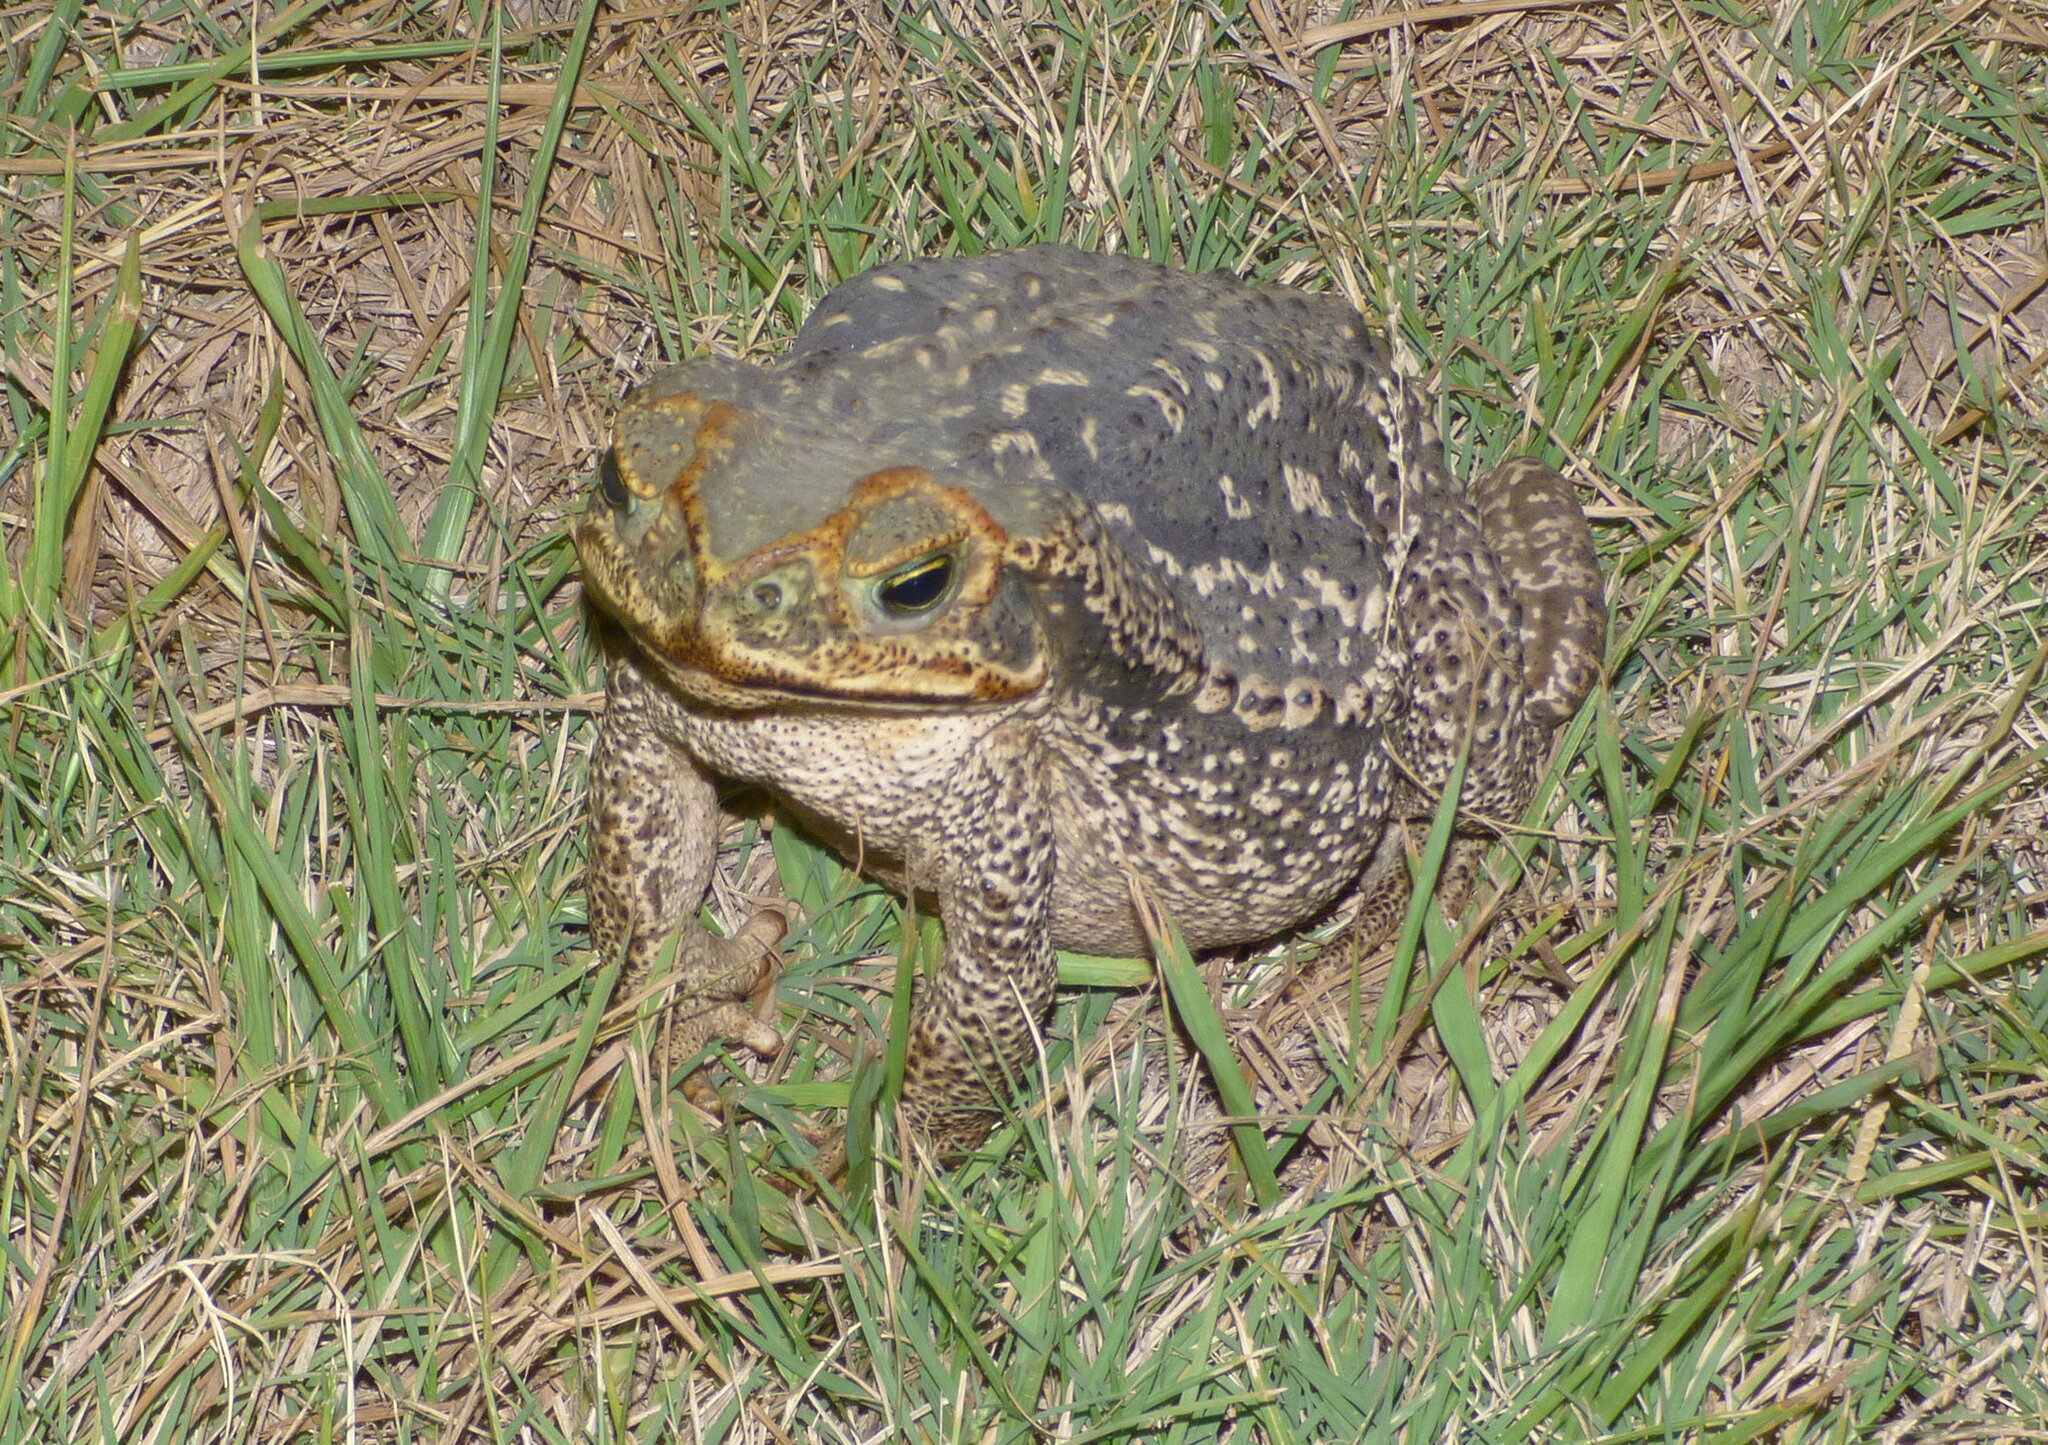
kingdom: Animalia
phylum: Chordata
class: Amphibia
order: Anura
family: Bufonidae
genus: Rhinella
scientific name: Rhinella diptycha
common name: Cope's toad
